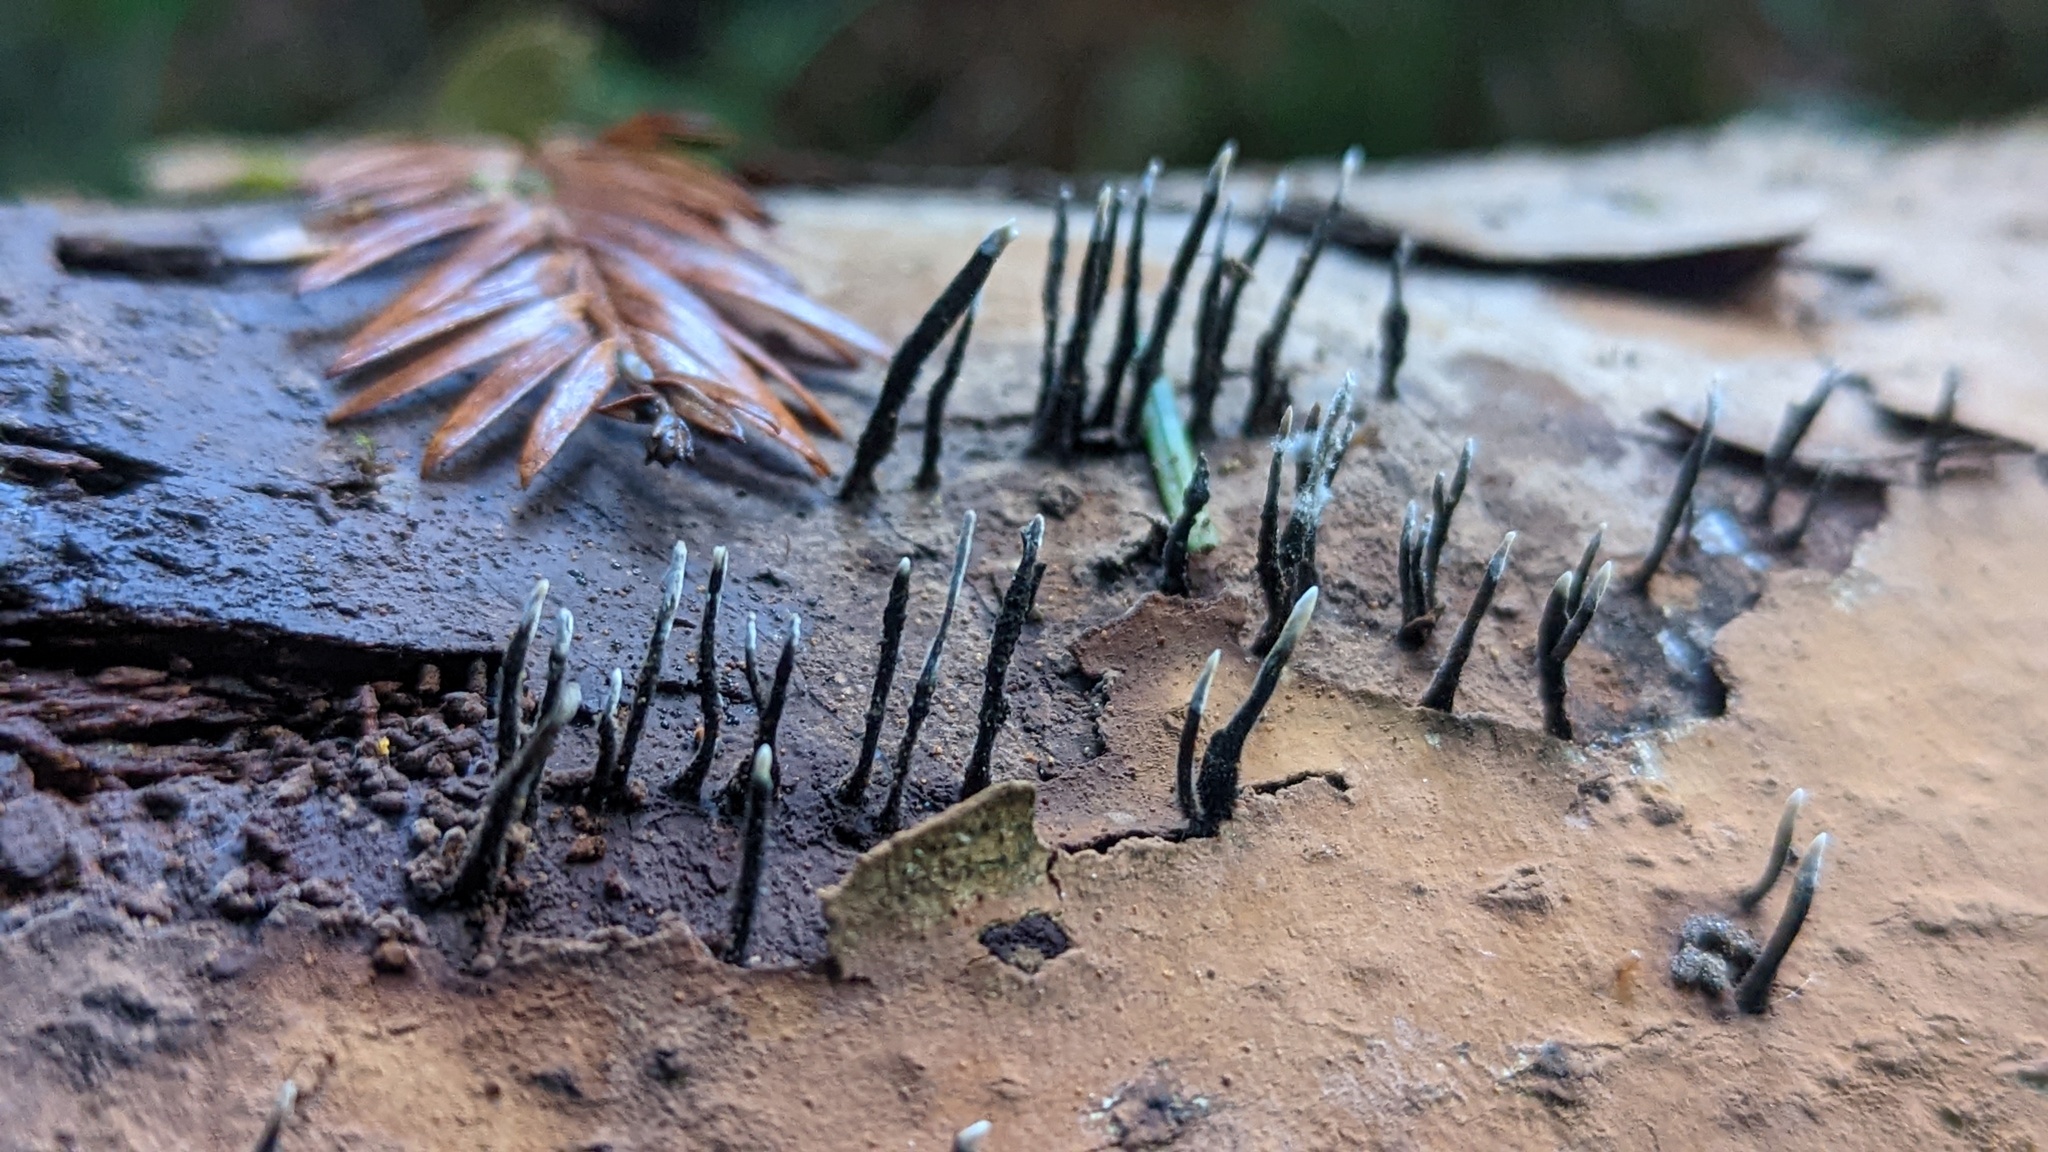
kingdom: Fungi
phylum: Ascomycota
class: Sordariomycetes
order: Xylariales
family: Xylariaceae
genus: Xylaria
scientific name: Xylaria hypoxylon
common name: Candle-snuff fungus
